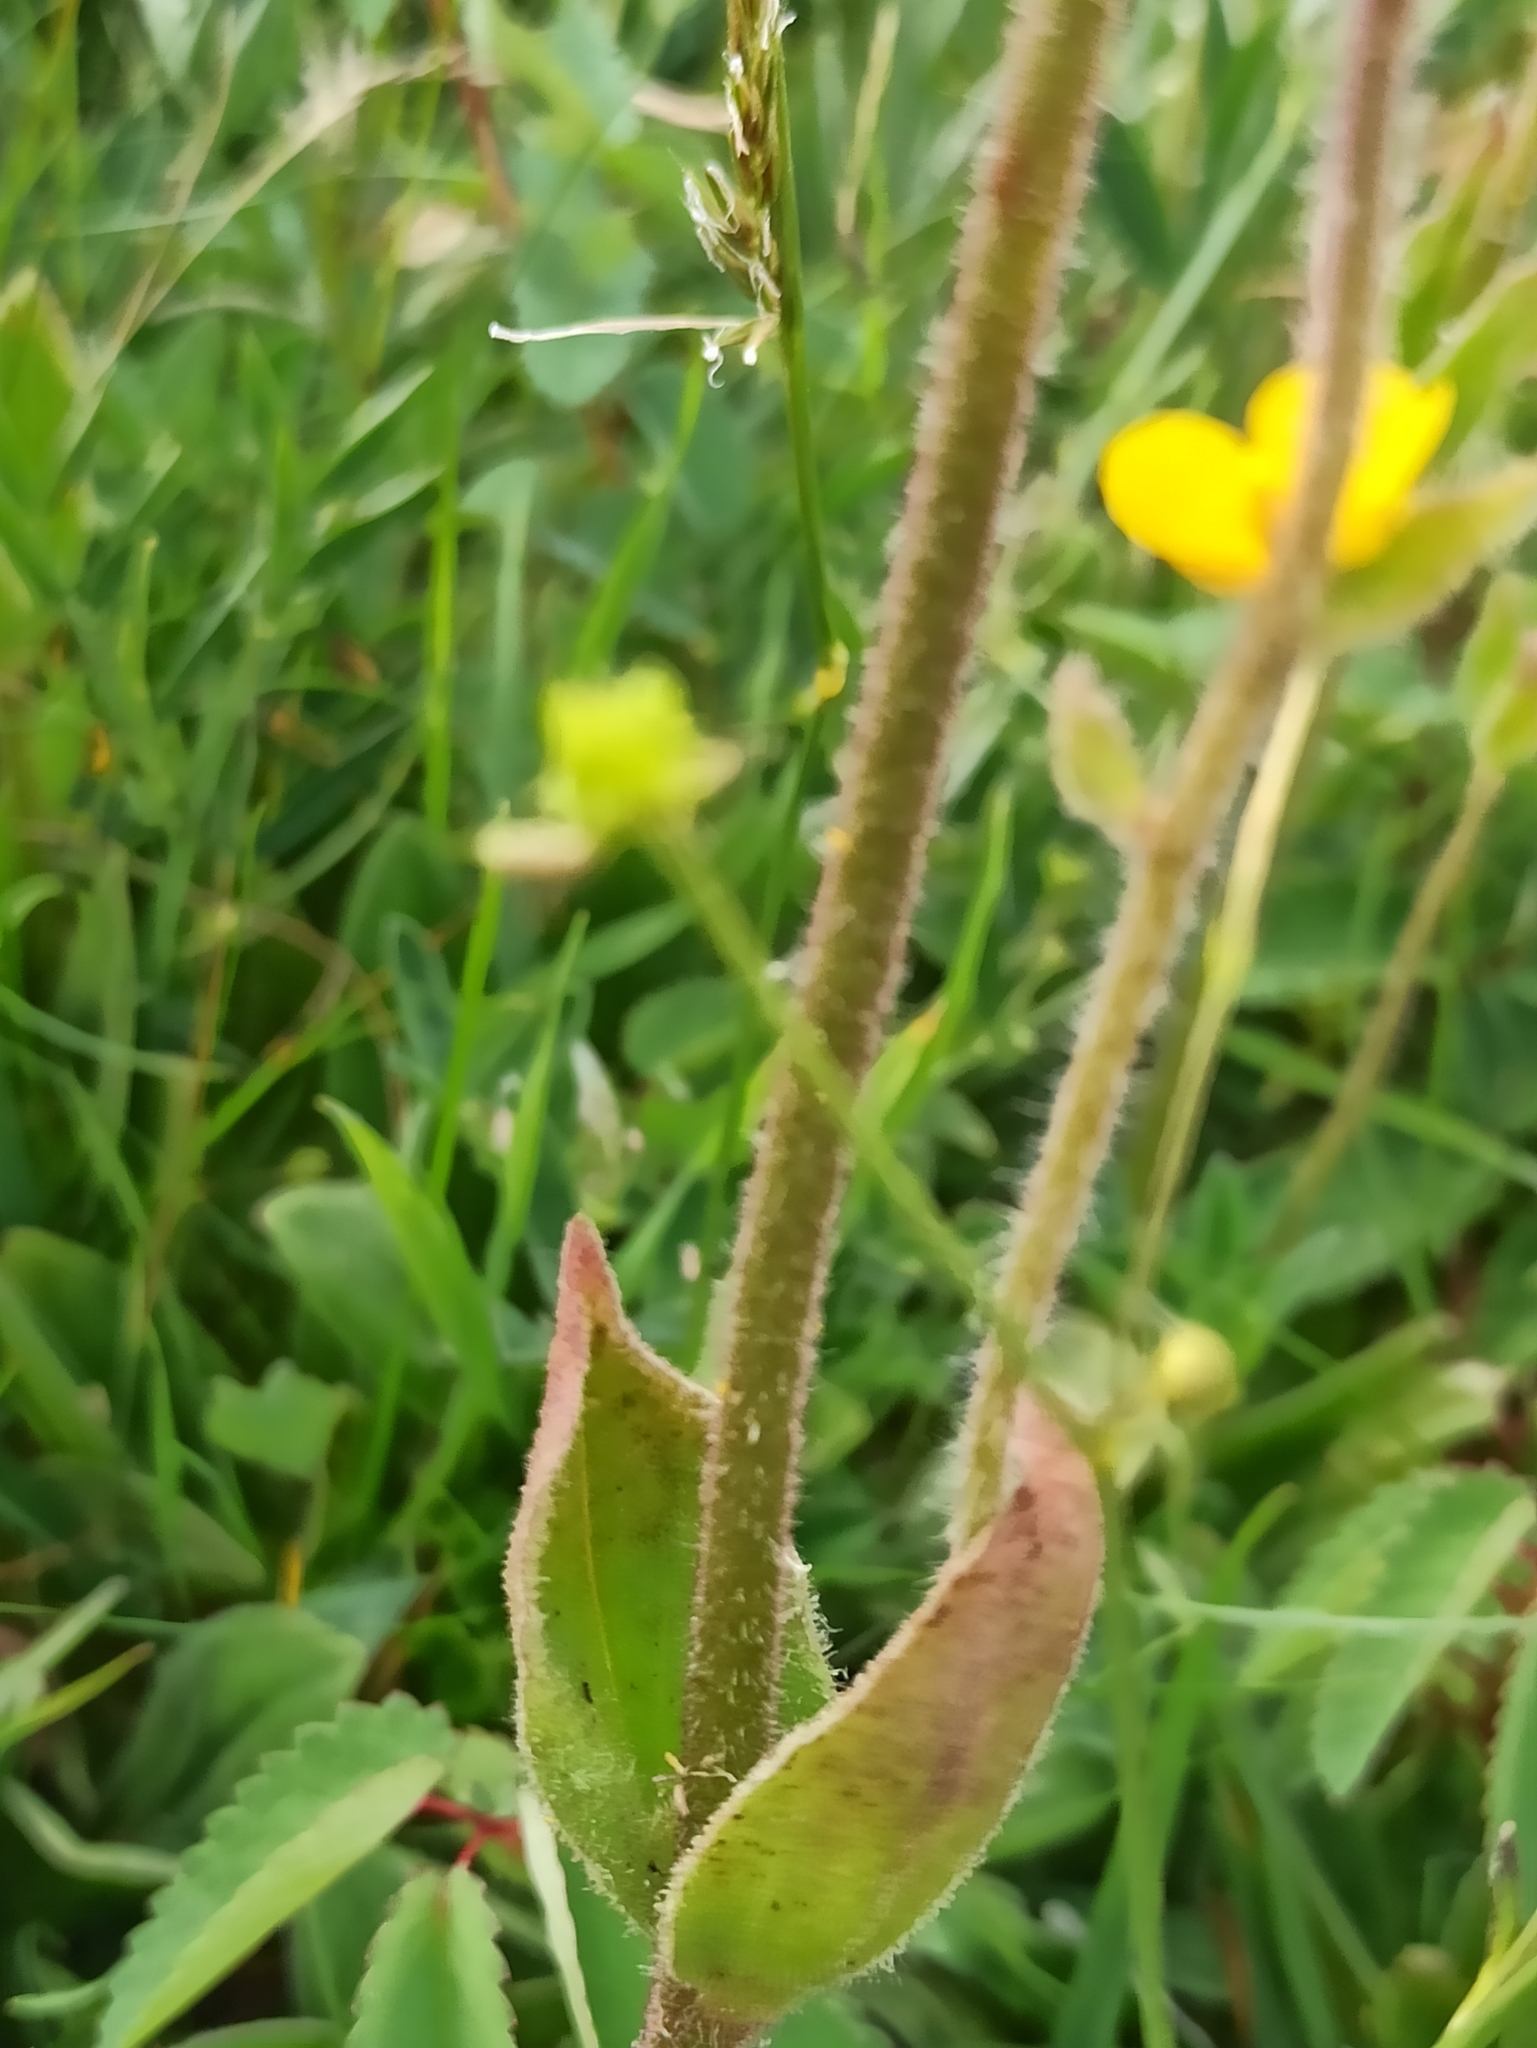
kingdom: Plantae
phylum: Tracheophyta
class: Magnoliopsida
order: Asterales
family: Asteraceae
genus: Arnica
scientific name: Arnica montana
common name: Leopard's bane
